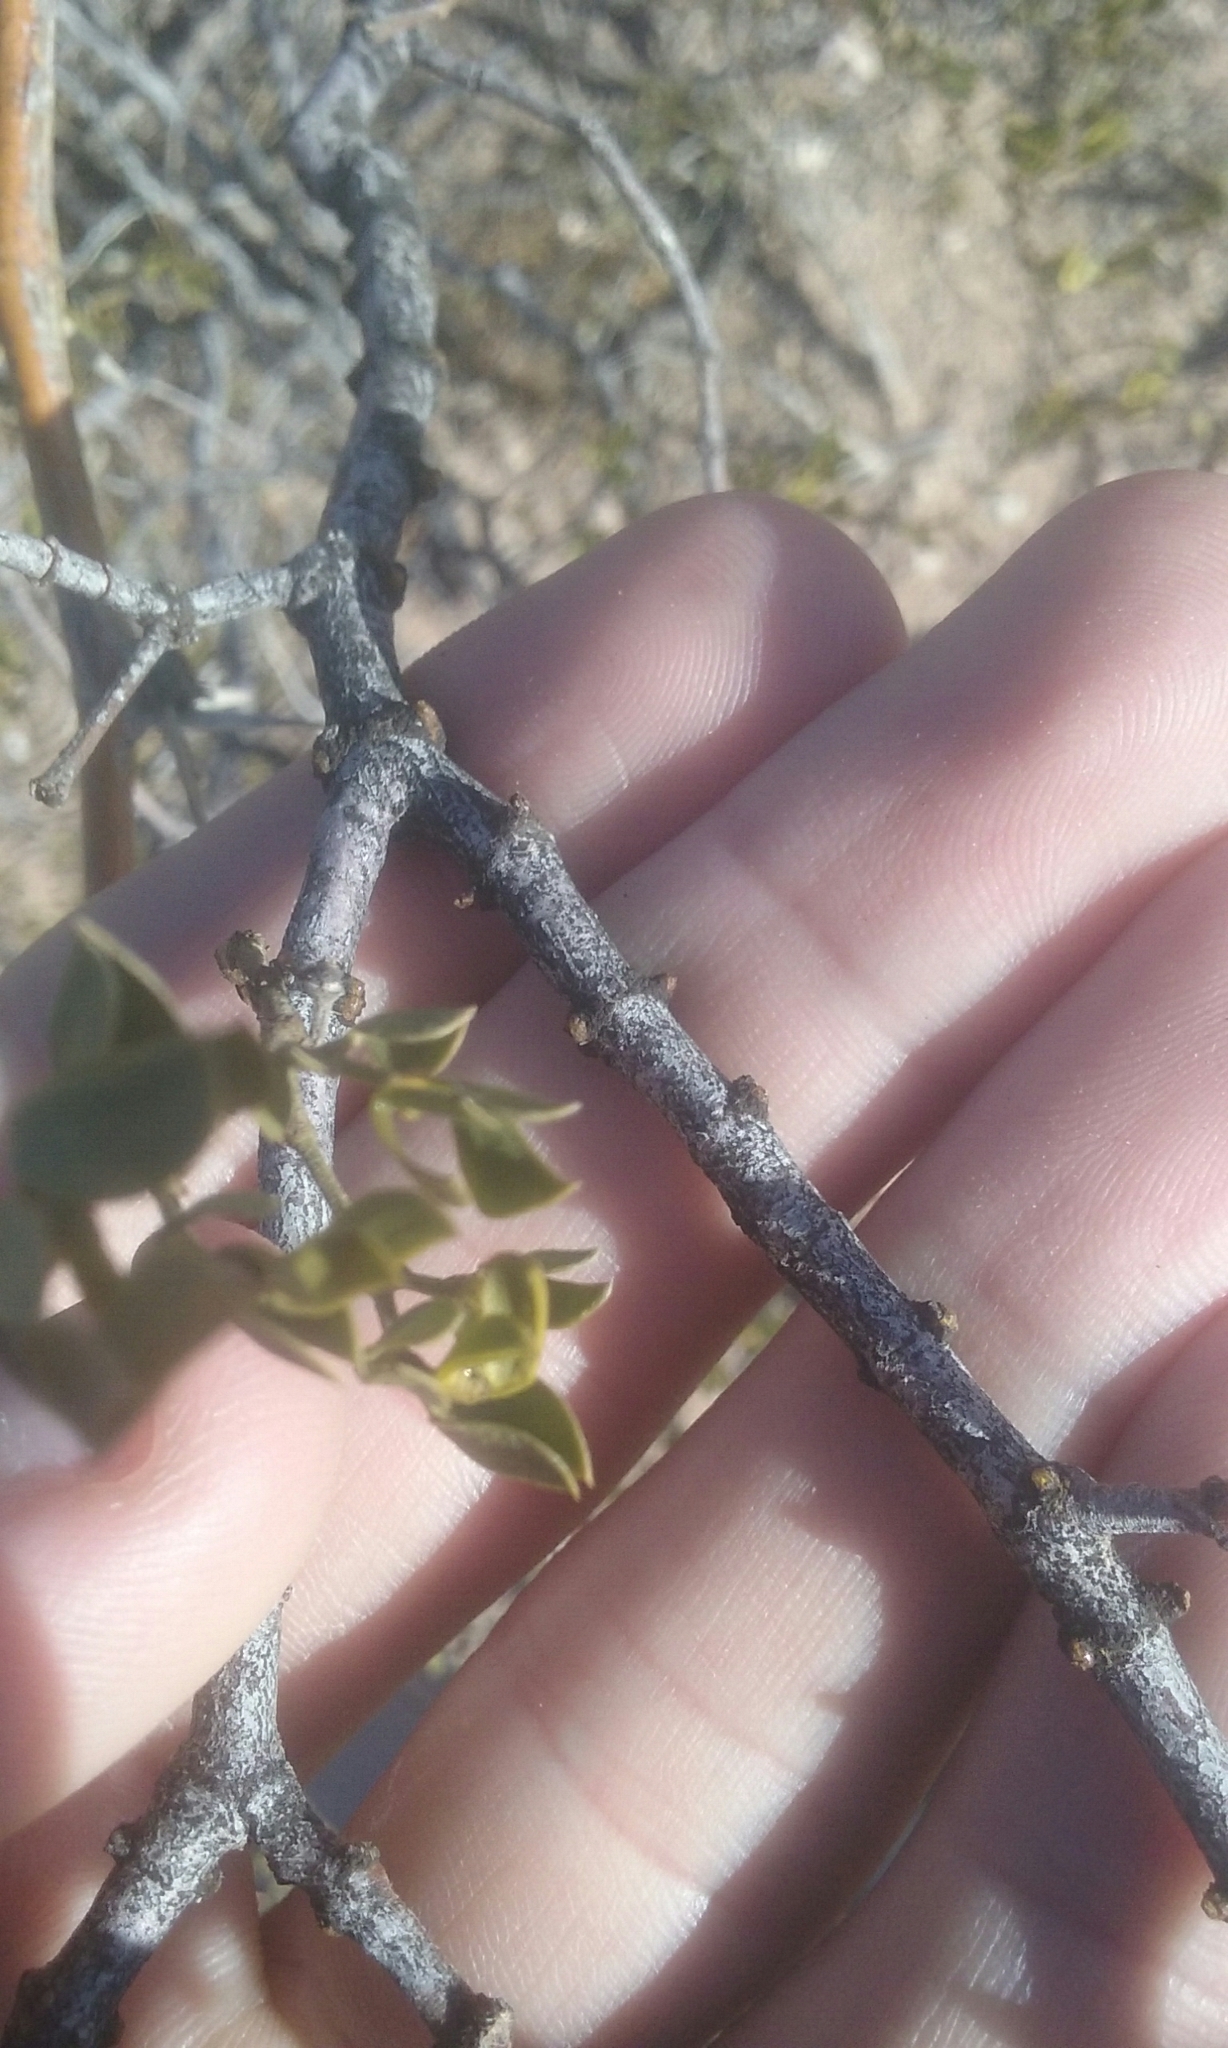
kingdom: Plantae
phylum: Tracheophyta
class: Magnoliopsida
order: Zygophyllales
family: Zygophyllaceae
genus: Larrea
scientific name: Larrea tridentata
